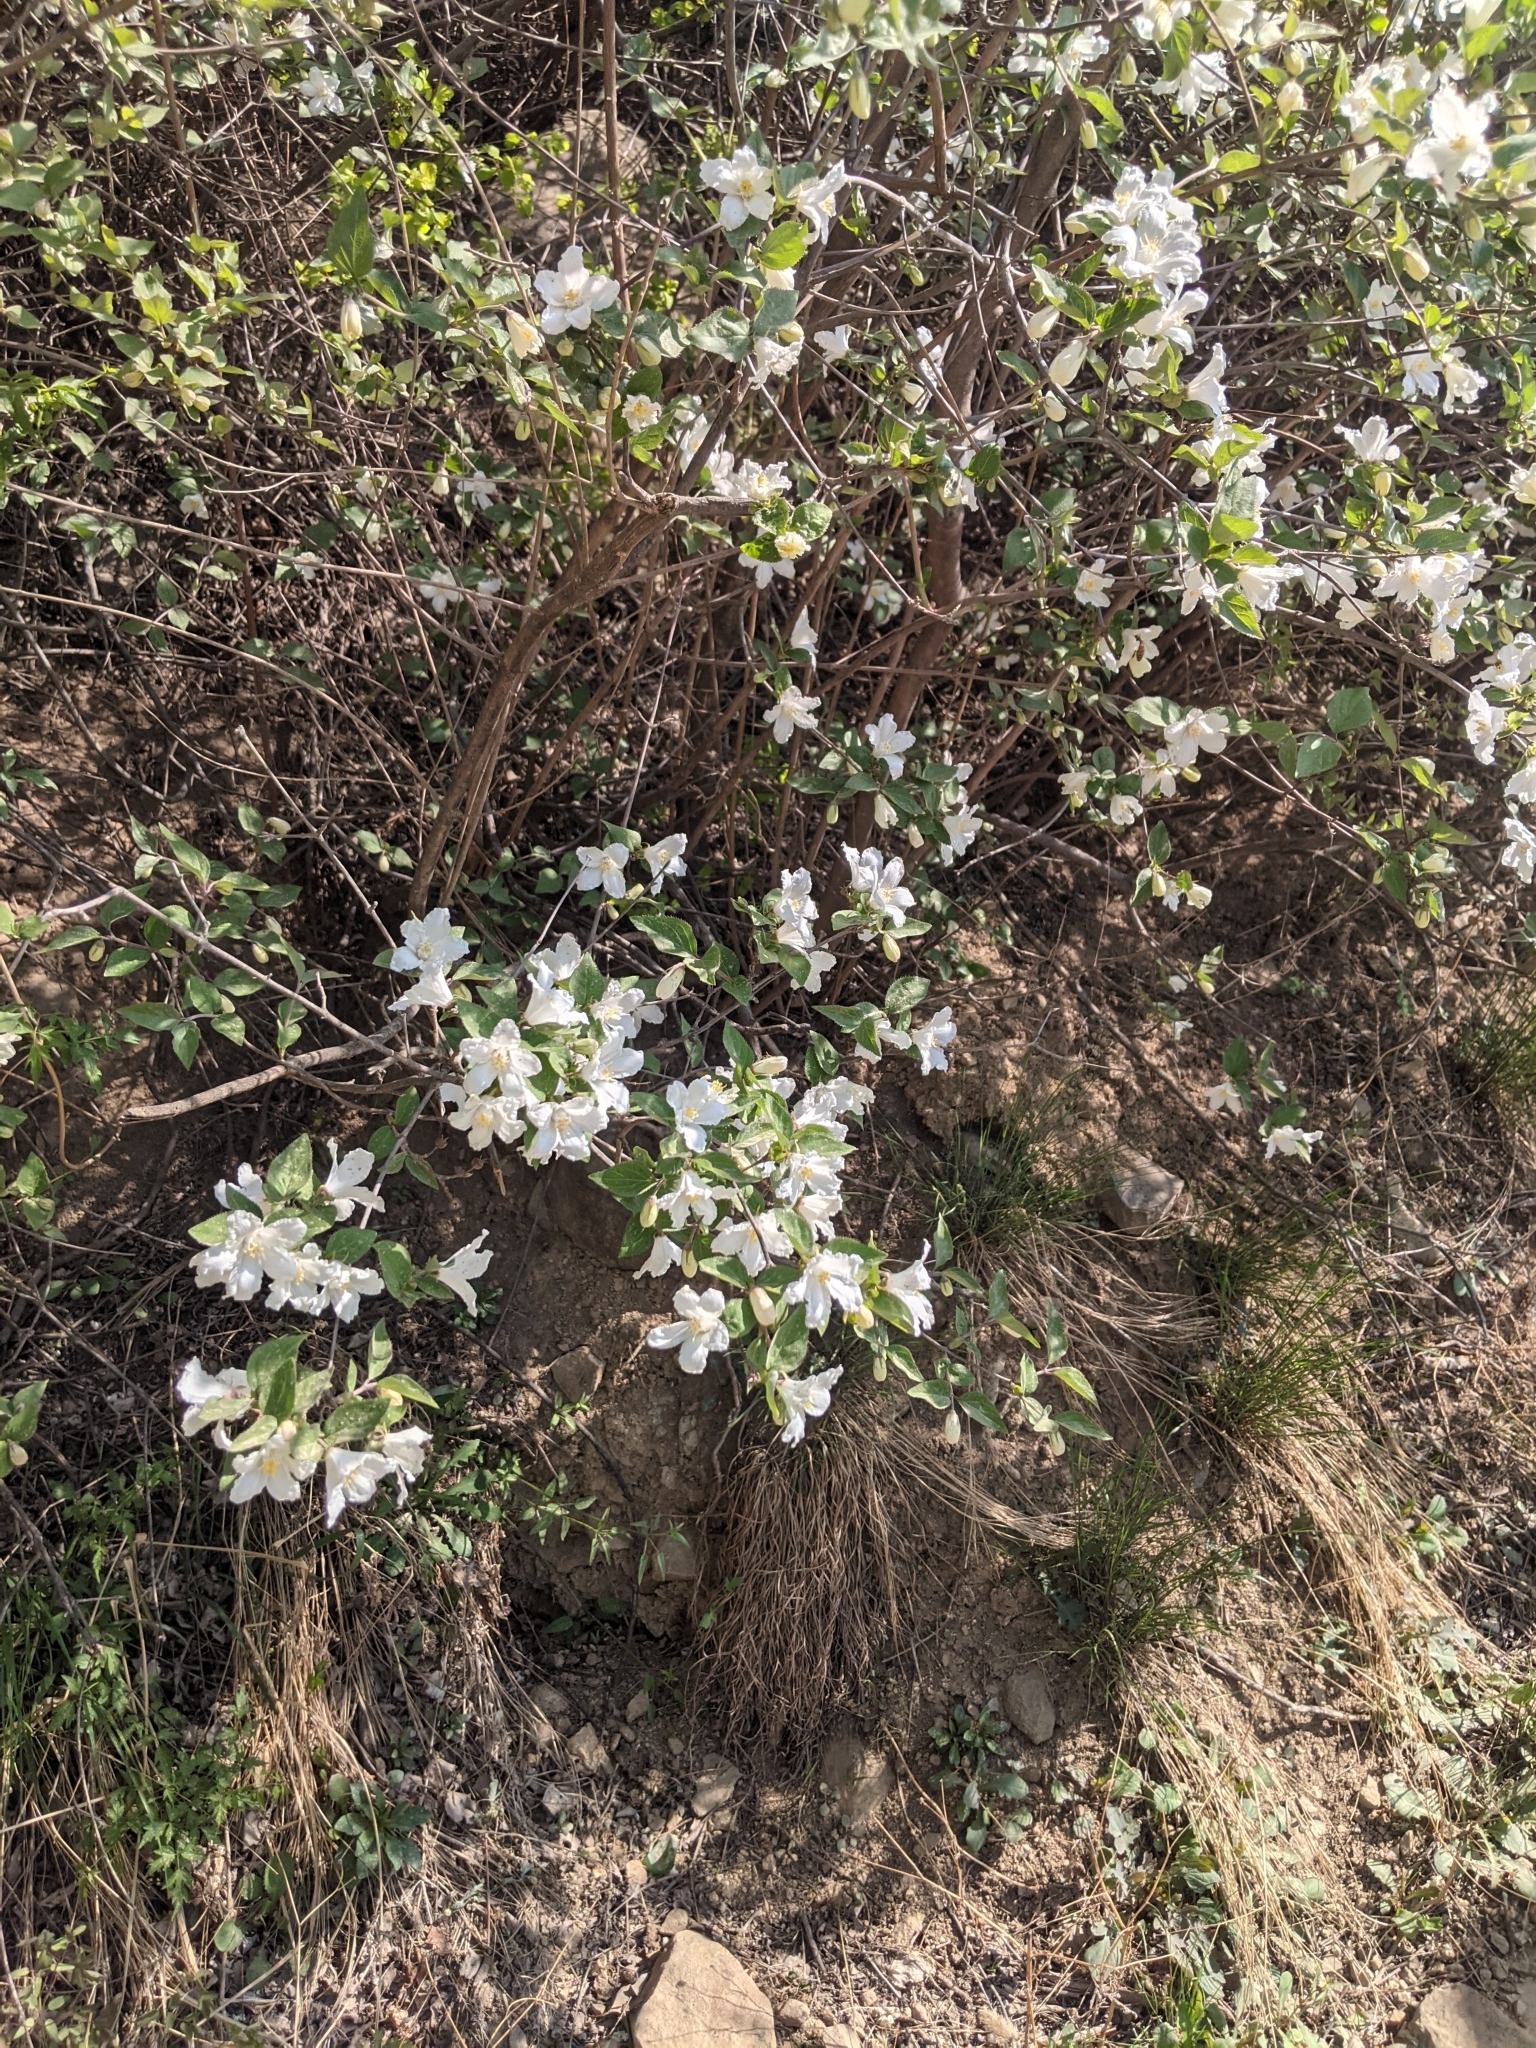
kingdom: Plantae
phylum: Tracheophyta
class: Magnoliopsida
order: Cornales
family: Hydrangeaceae
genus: Deutzia
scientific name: Deutzia grandiflora
